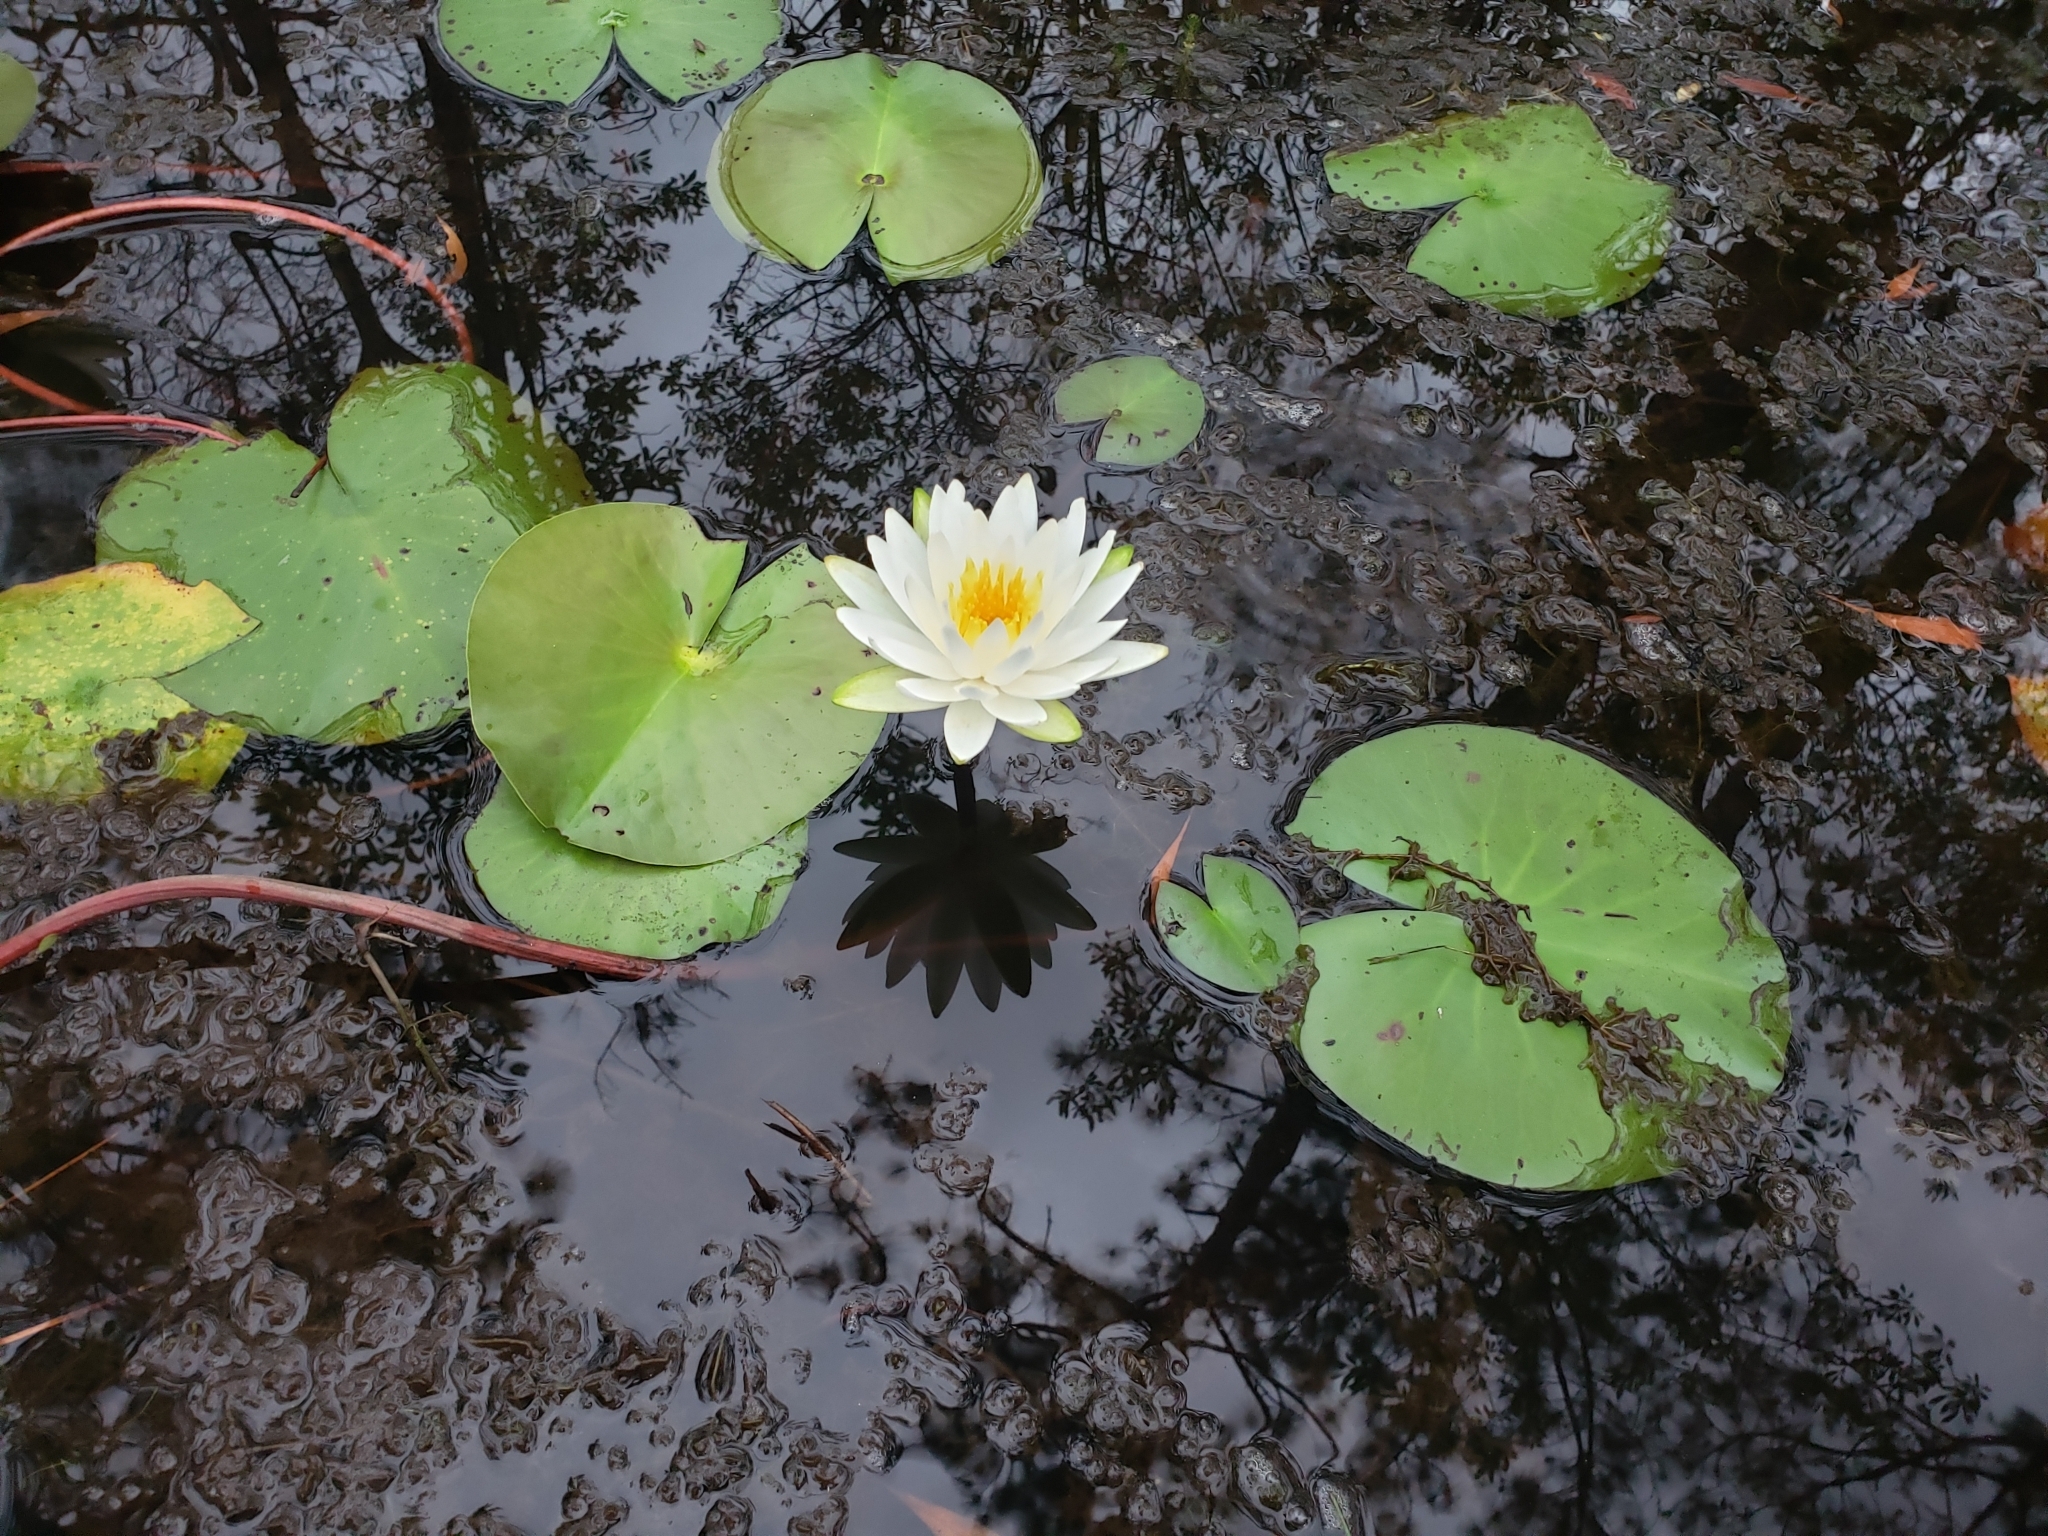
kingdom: Plantae
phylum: Tracheophyta
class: Magnoliopsida
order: Nymphaeales
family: Nymphaeaceae
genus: Nymphaea
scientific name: Nymphaea odorata
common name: Fragrant water-lily
